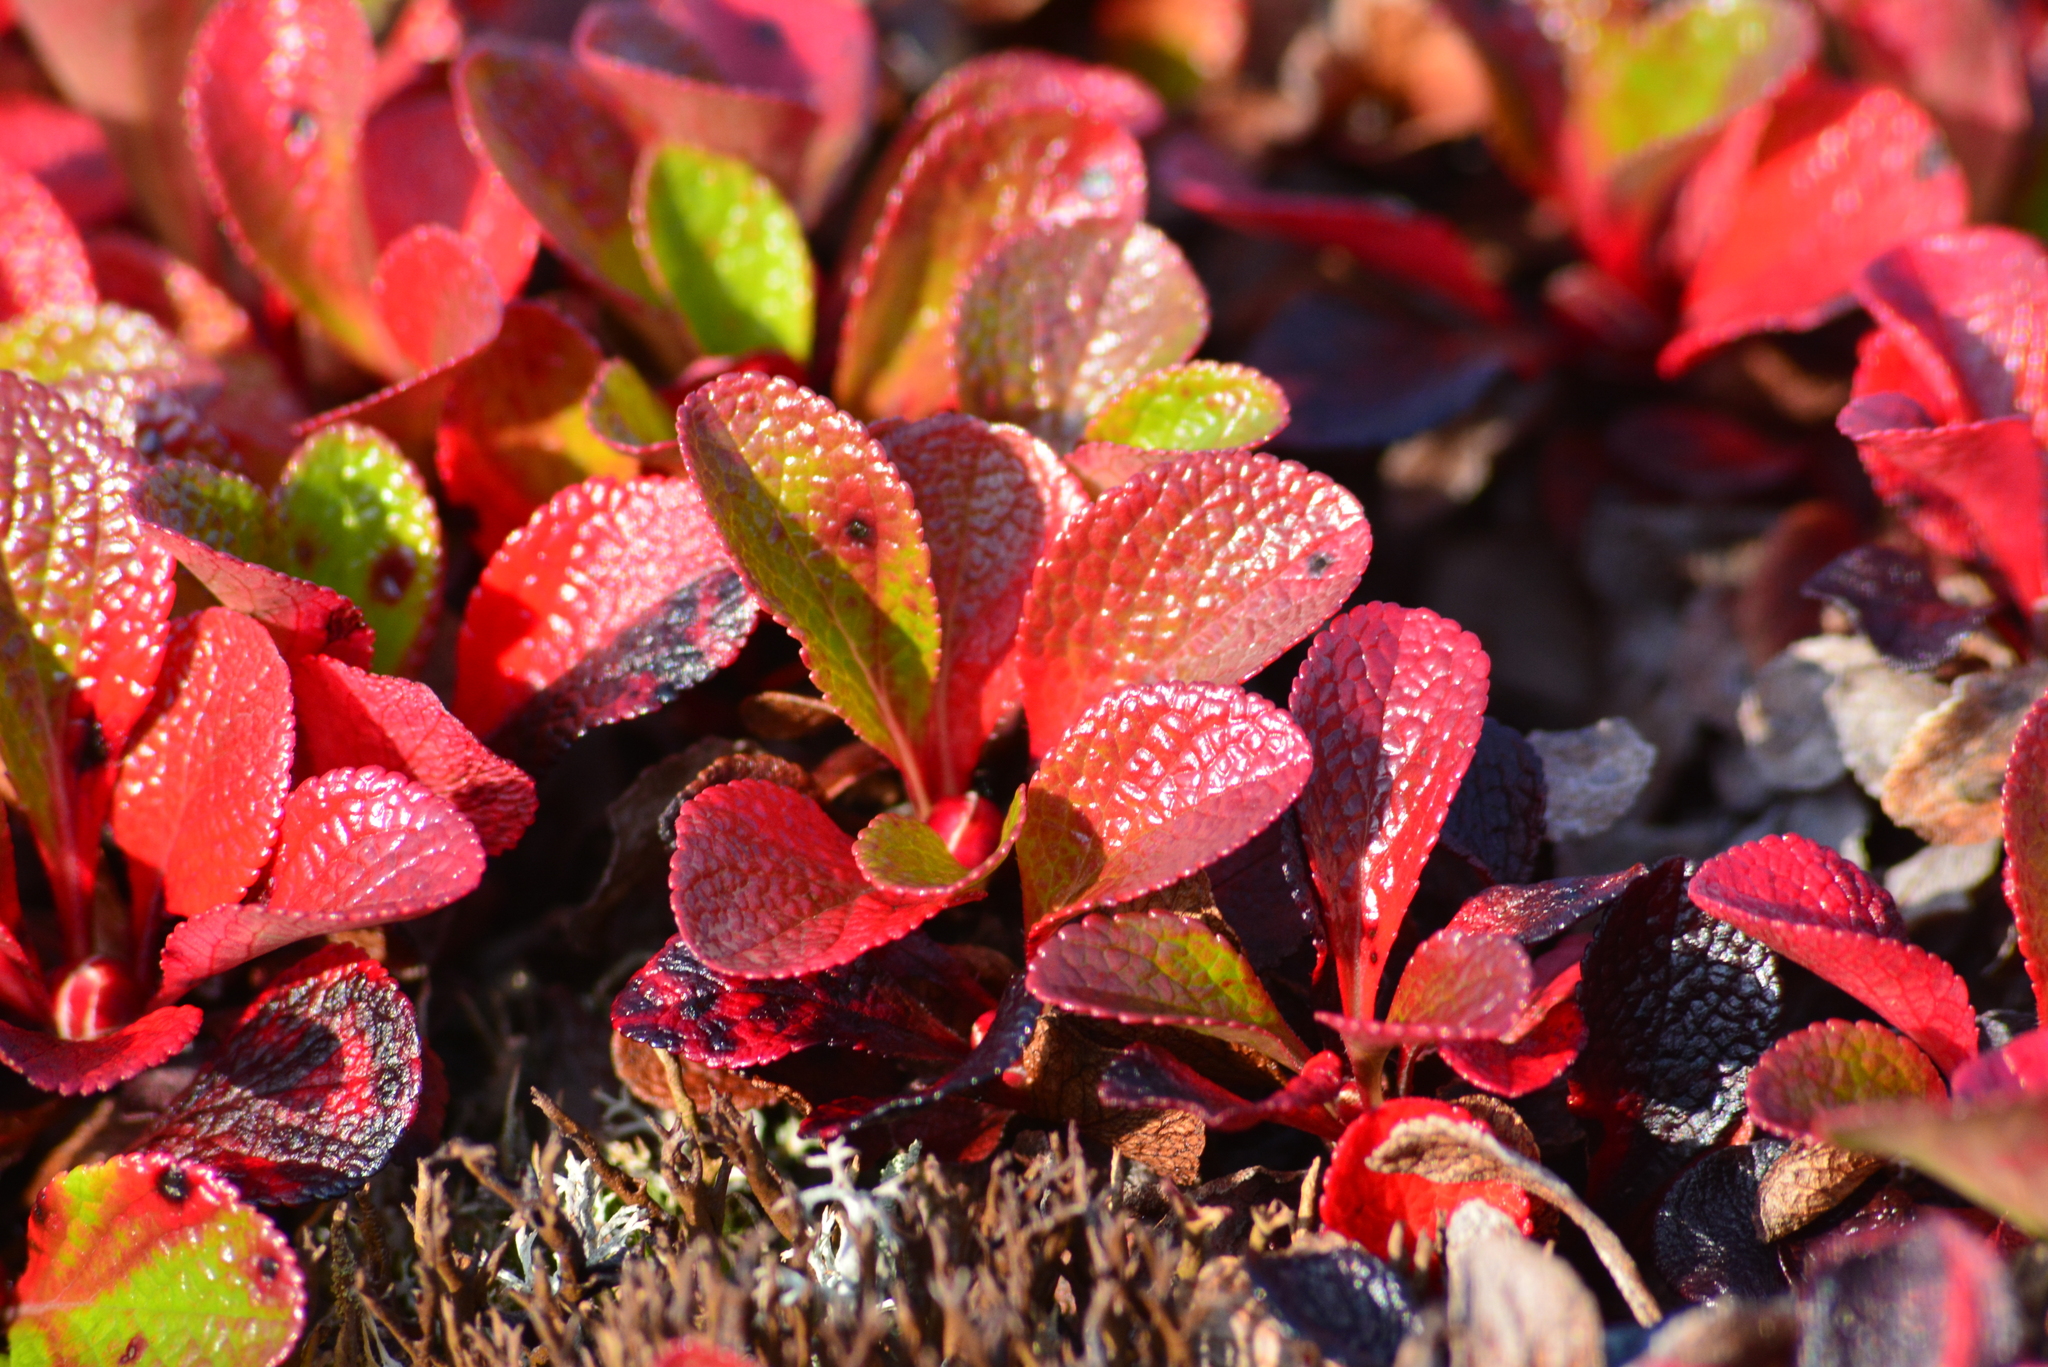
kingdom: Plantae
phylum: Tracheophyta
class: Magnoliopsida
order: Ericales
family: Ericaceae
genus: Arctostaphylos
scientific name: Arctostaphylos alpinus
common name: Alpine bearberry
